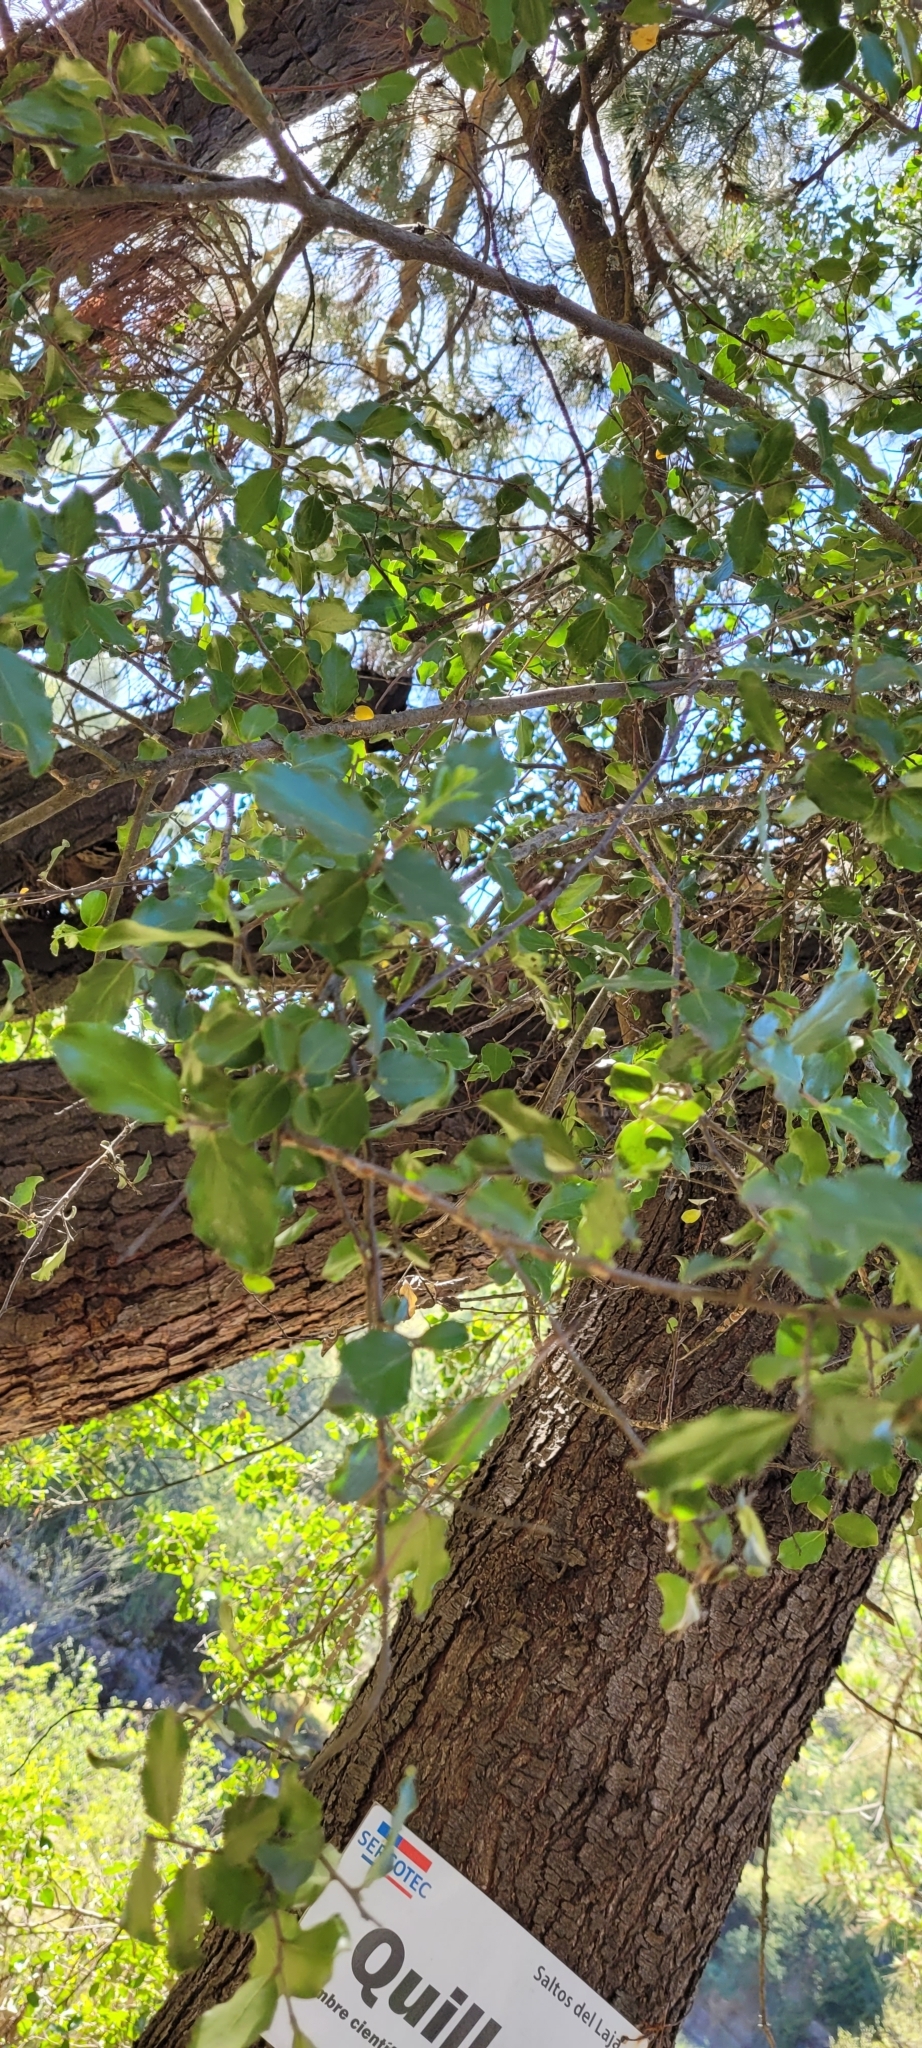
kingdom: Plantae
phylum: Tracheophyta
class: Magnoliopsida
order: Fabales
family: Quillajaceae
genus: Quillaja
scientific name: Quillaja saponaria
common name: Murillo's-bark
